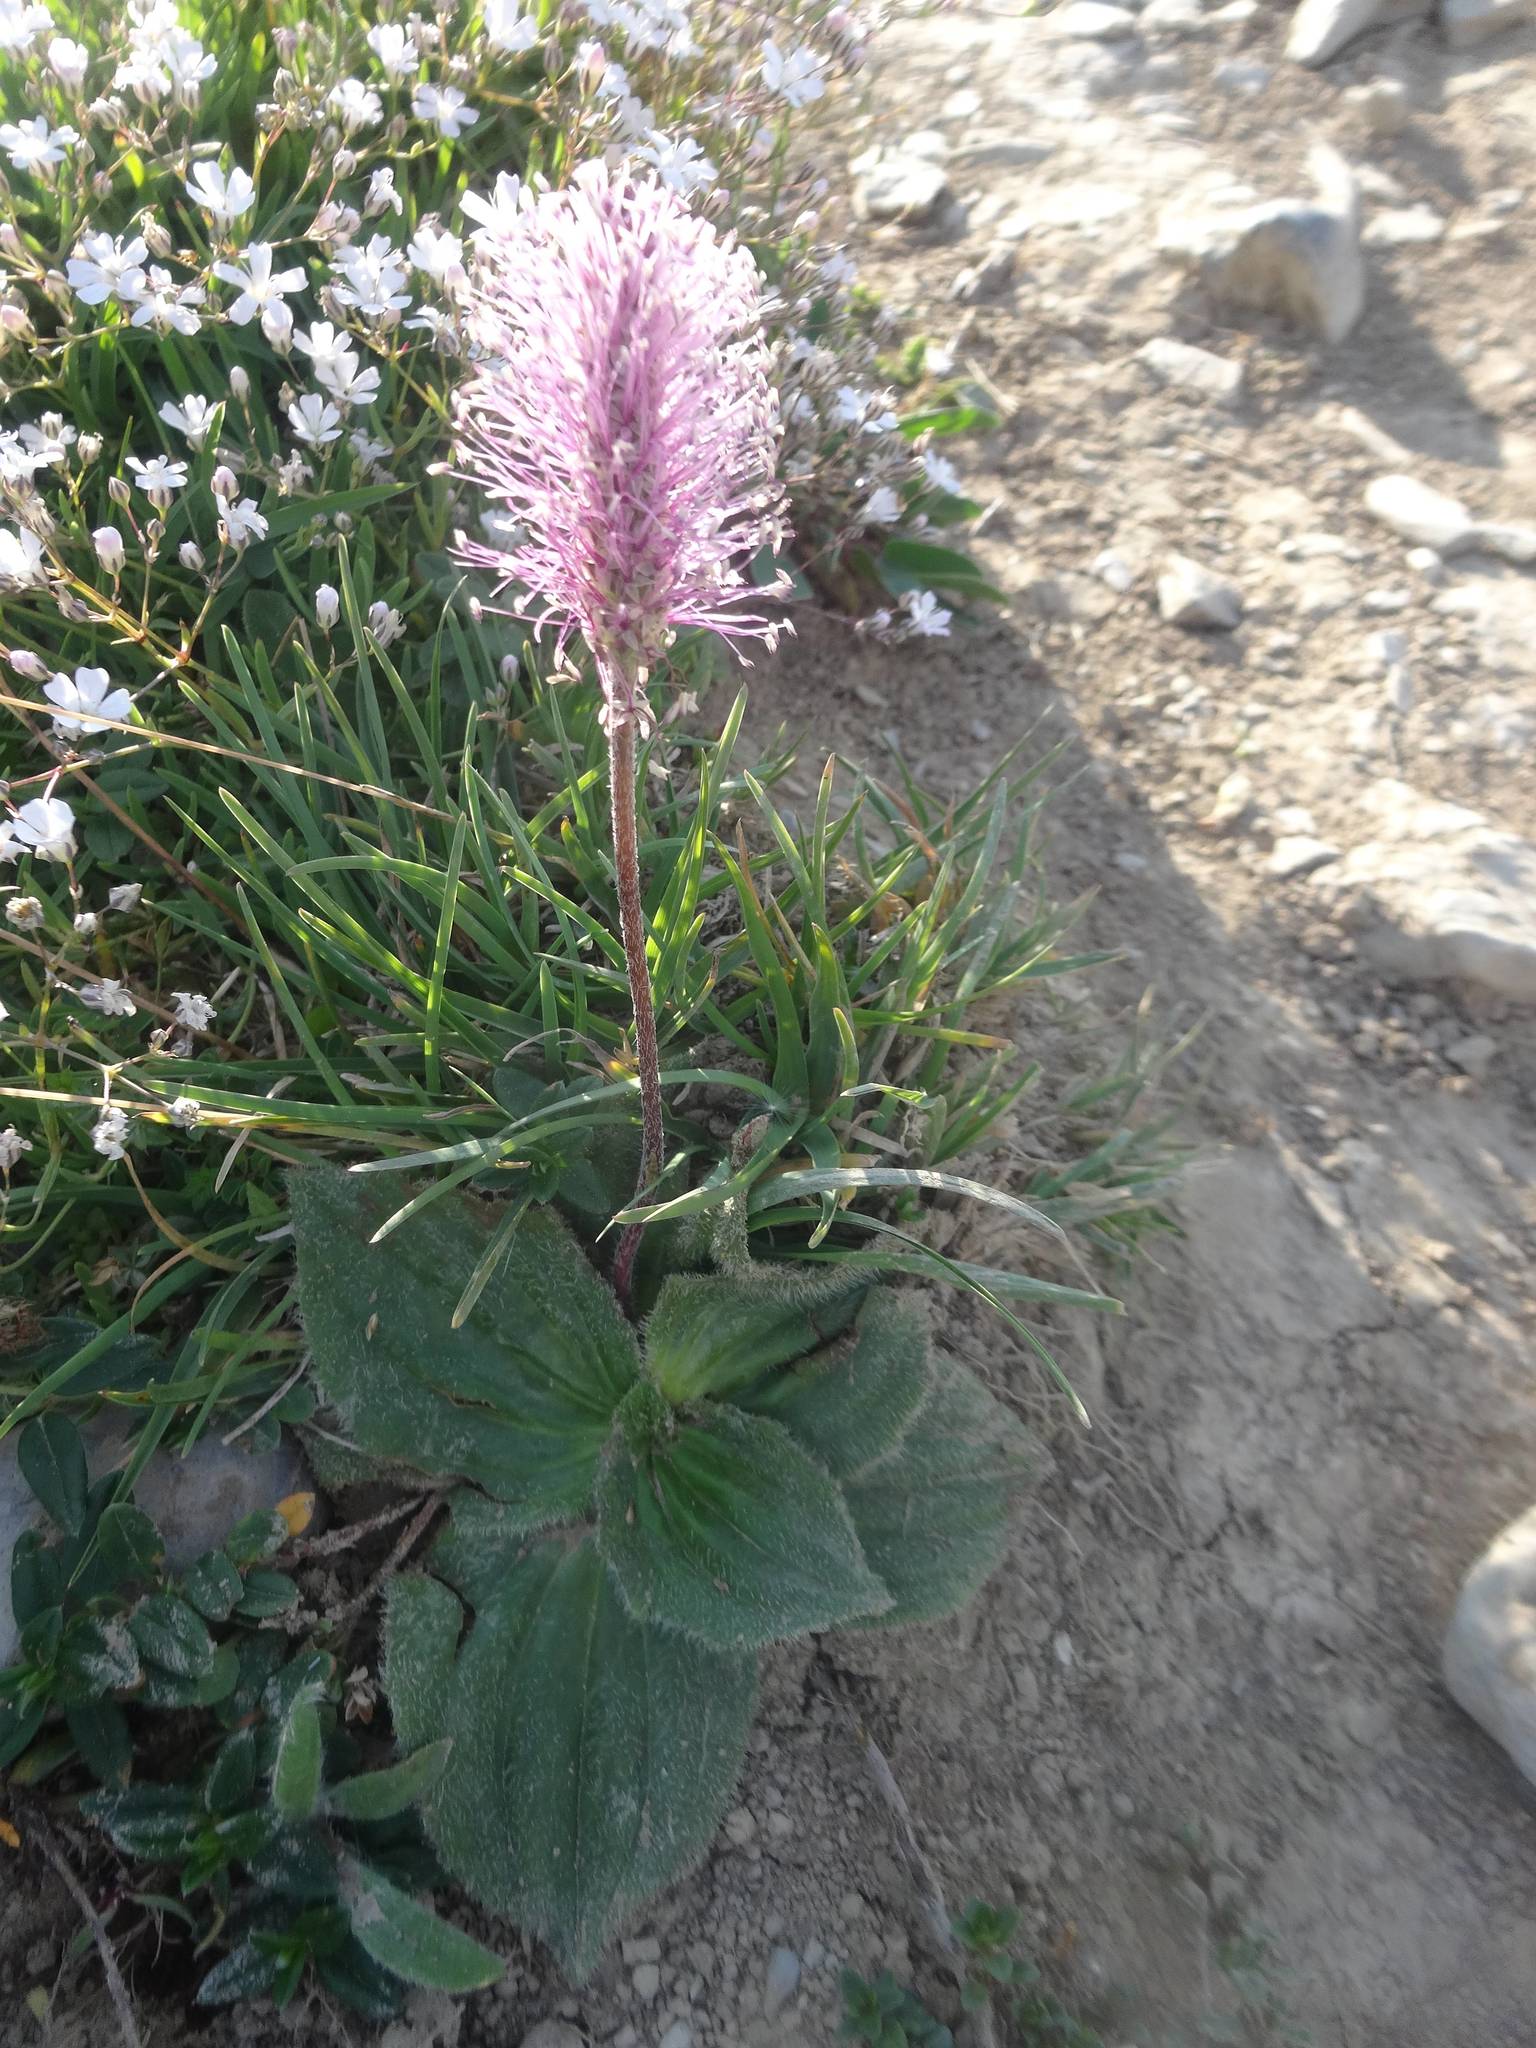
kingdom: Plantae
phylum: Tracheophyta
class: Magnoliopsida
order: Lamiales
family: Plantaginaceae
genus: Plantago
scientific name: Plantago media
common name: Hoary plantain
